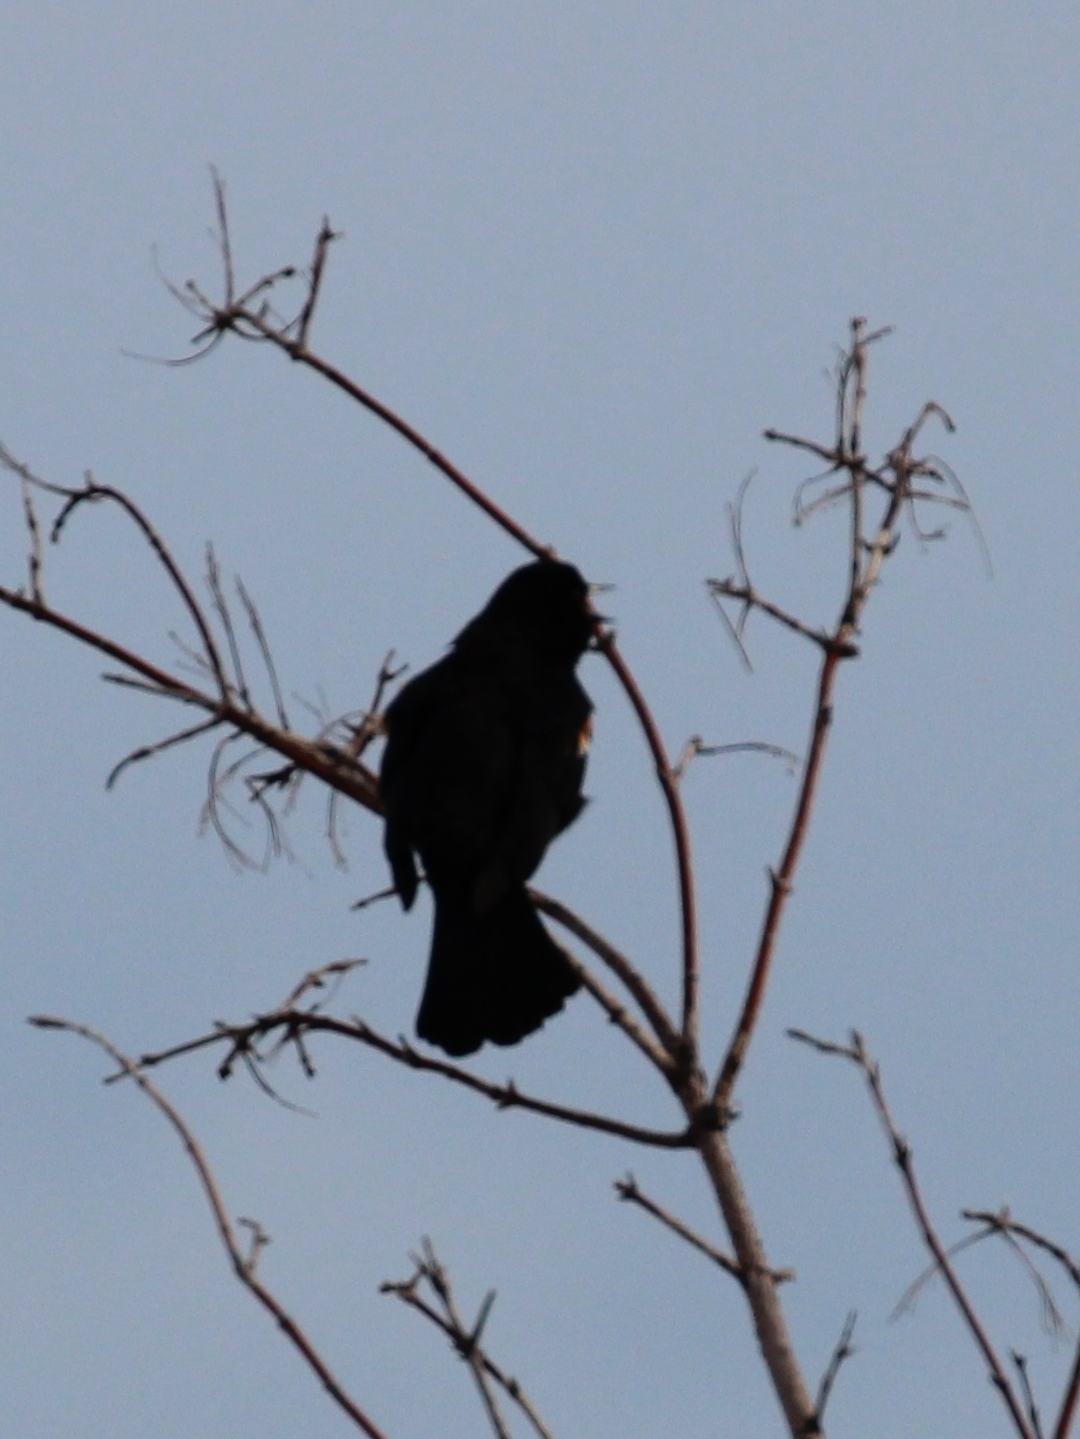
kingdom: Animalia
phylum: Chordata
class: Aves
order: Passeriformes
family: Icteridae
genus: Agelaius
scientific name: Agelaius phoeniceus
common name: Red-winged blackbird
